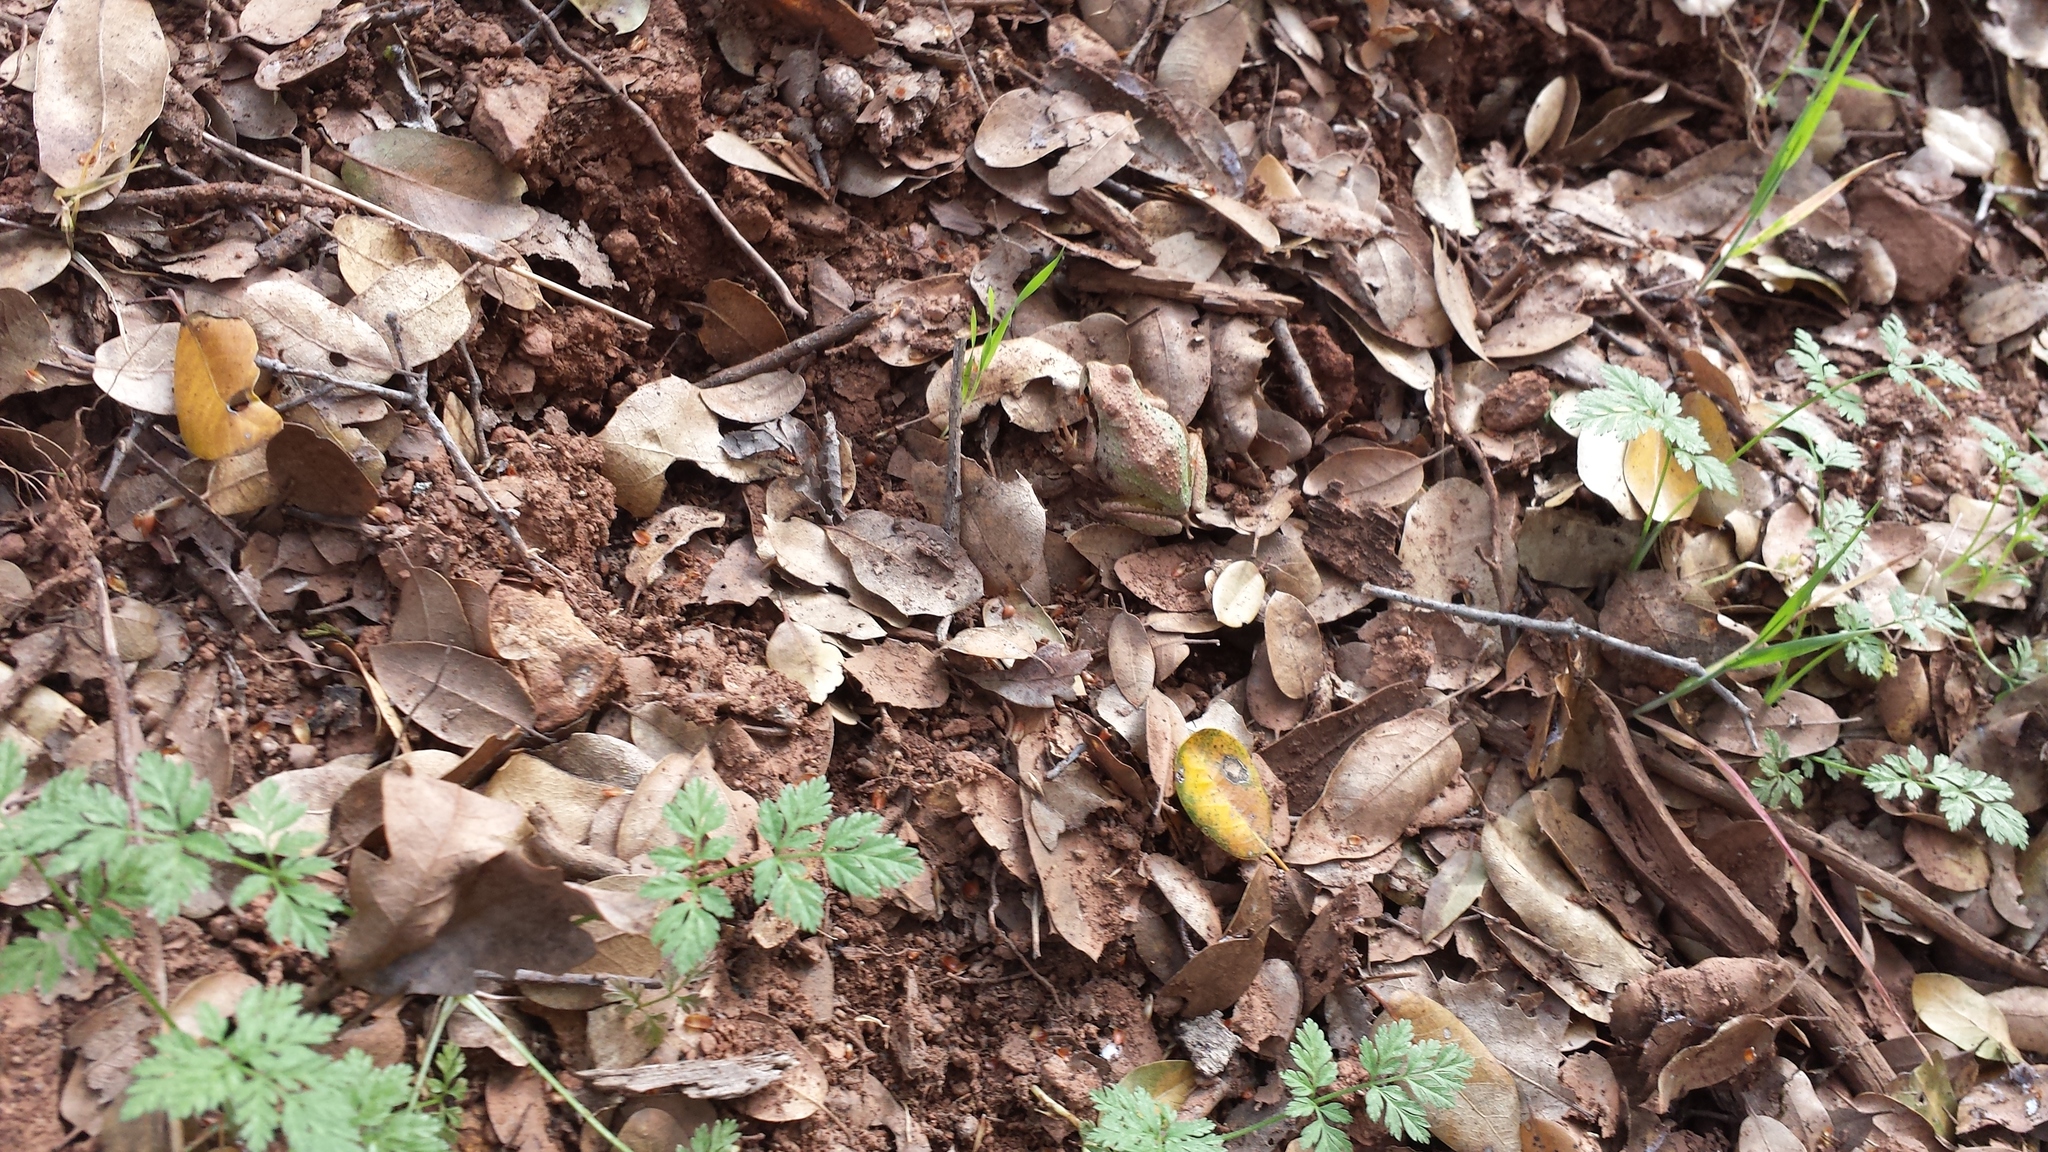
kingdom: Animalia
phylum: Chordata
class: Amphibia
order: Anura
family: Hylidae
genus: Pseudacris
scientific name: Pseudacris regilla
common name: Pacific chorus frog
